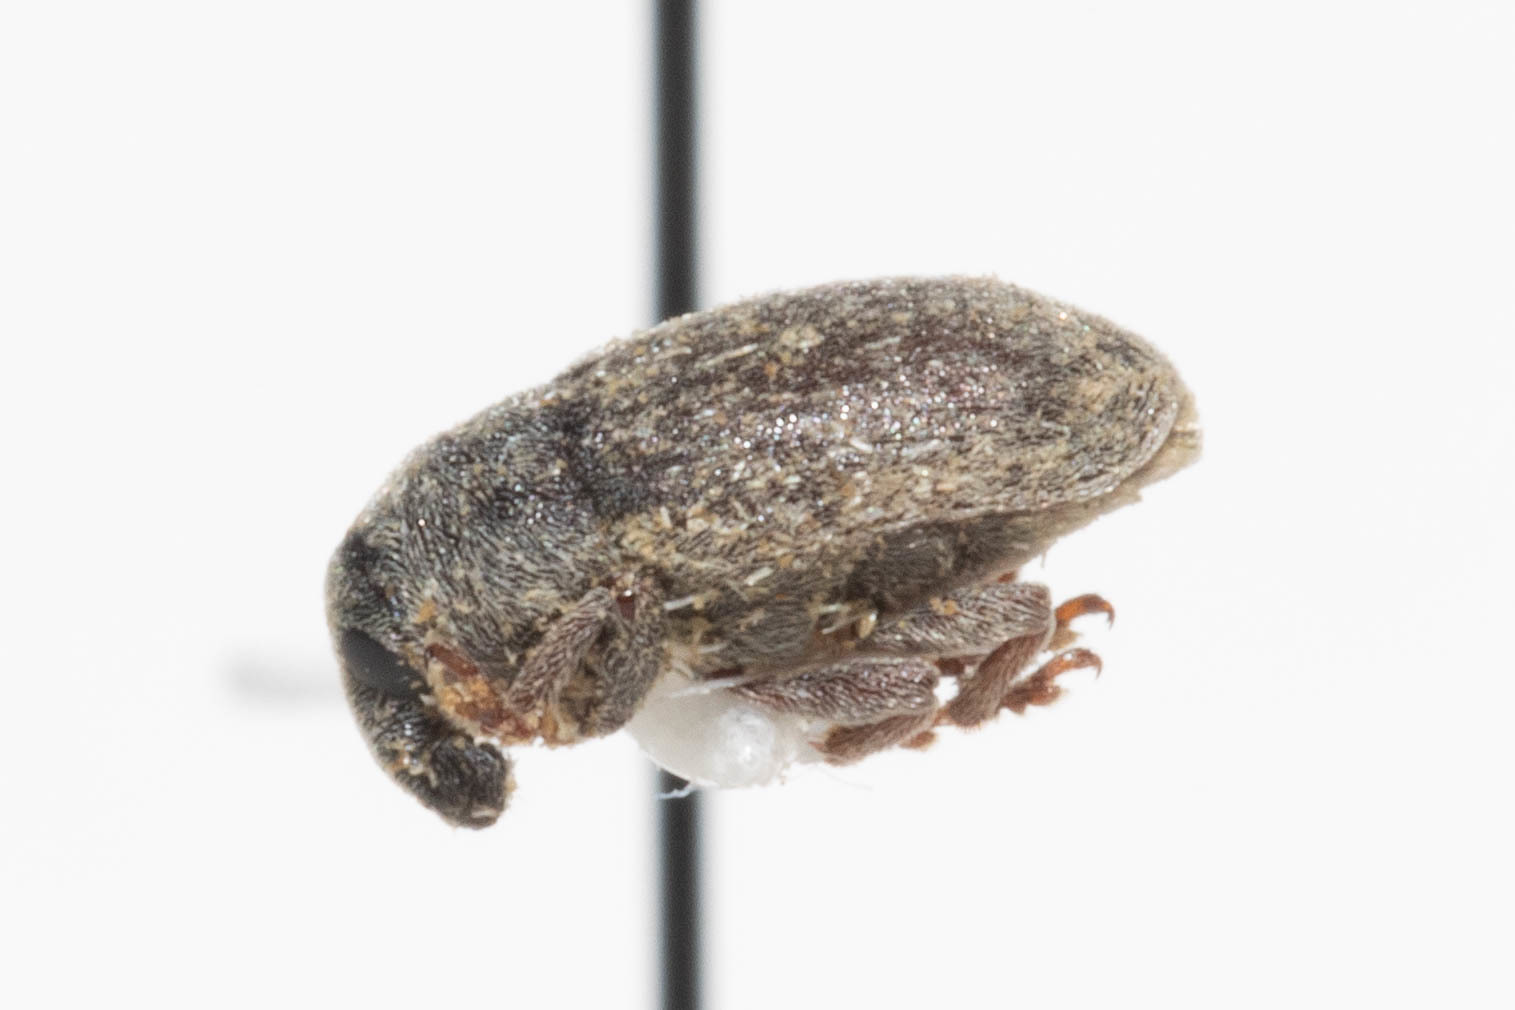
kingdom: Animalia
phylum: Arthropoda
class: Insecta
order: Coleoptera
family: Curculionidae
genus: Larinus
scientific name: Larinus minutus
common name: Weevil
